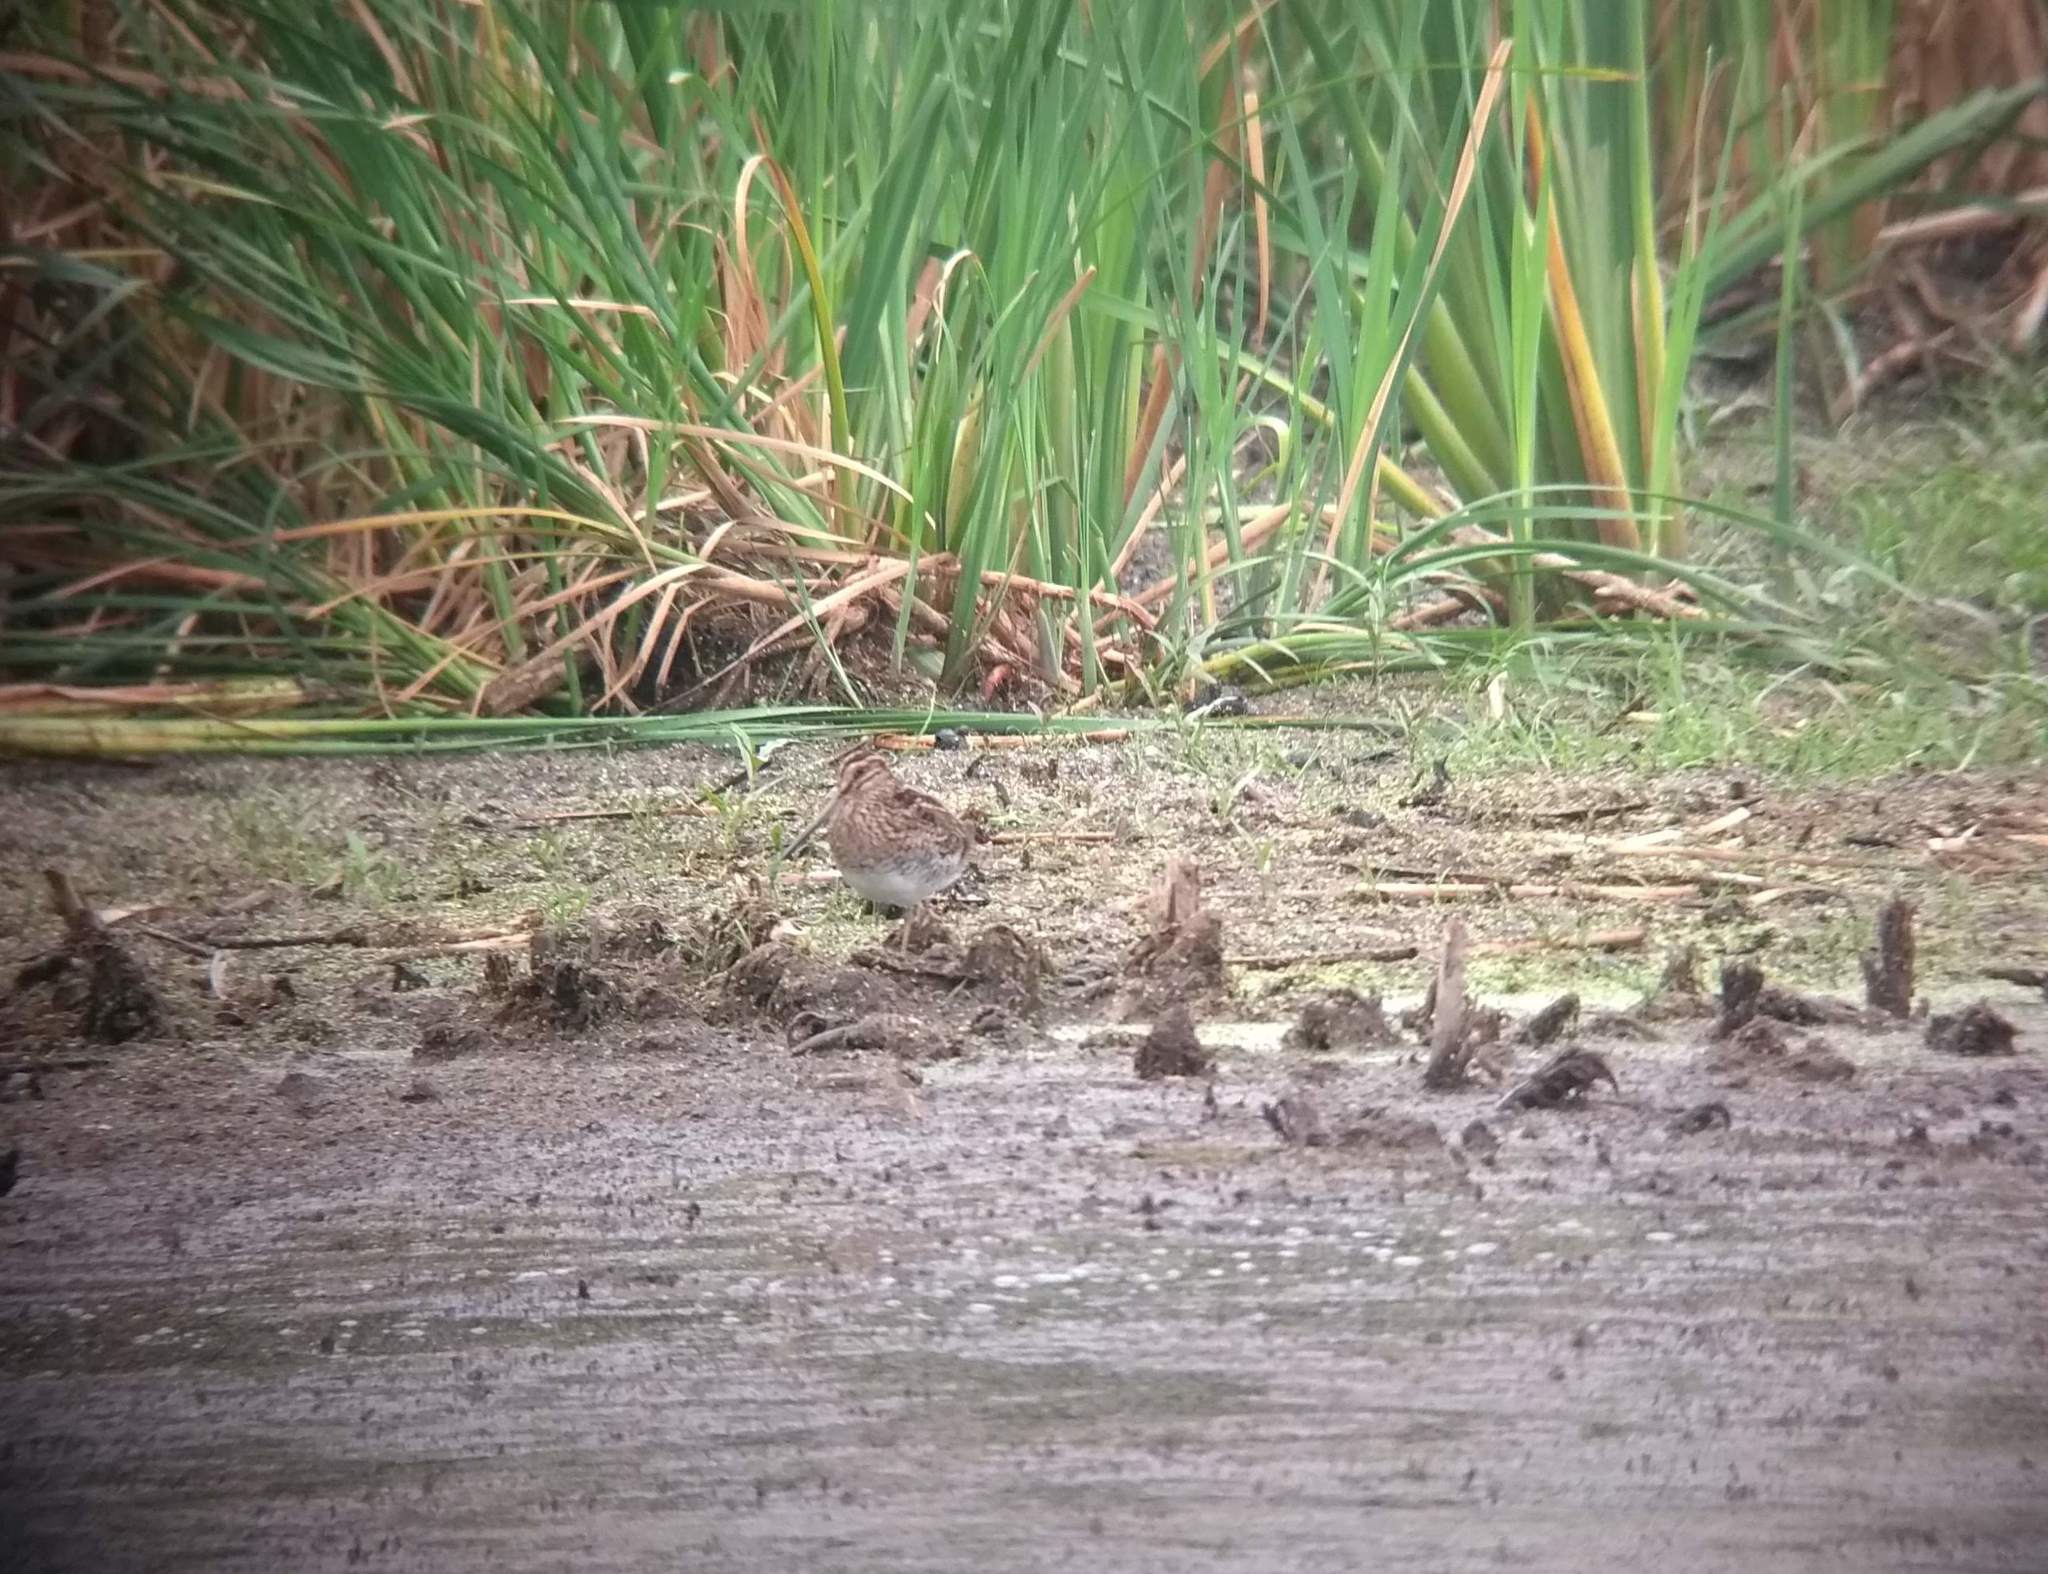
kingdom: Animalia
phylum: Chordata
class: Aves
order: Charadriiformes
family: Scolopacidae
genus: Gallinago
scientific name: Gallinago delicata
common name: Wilson's snipe
